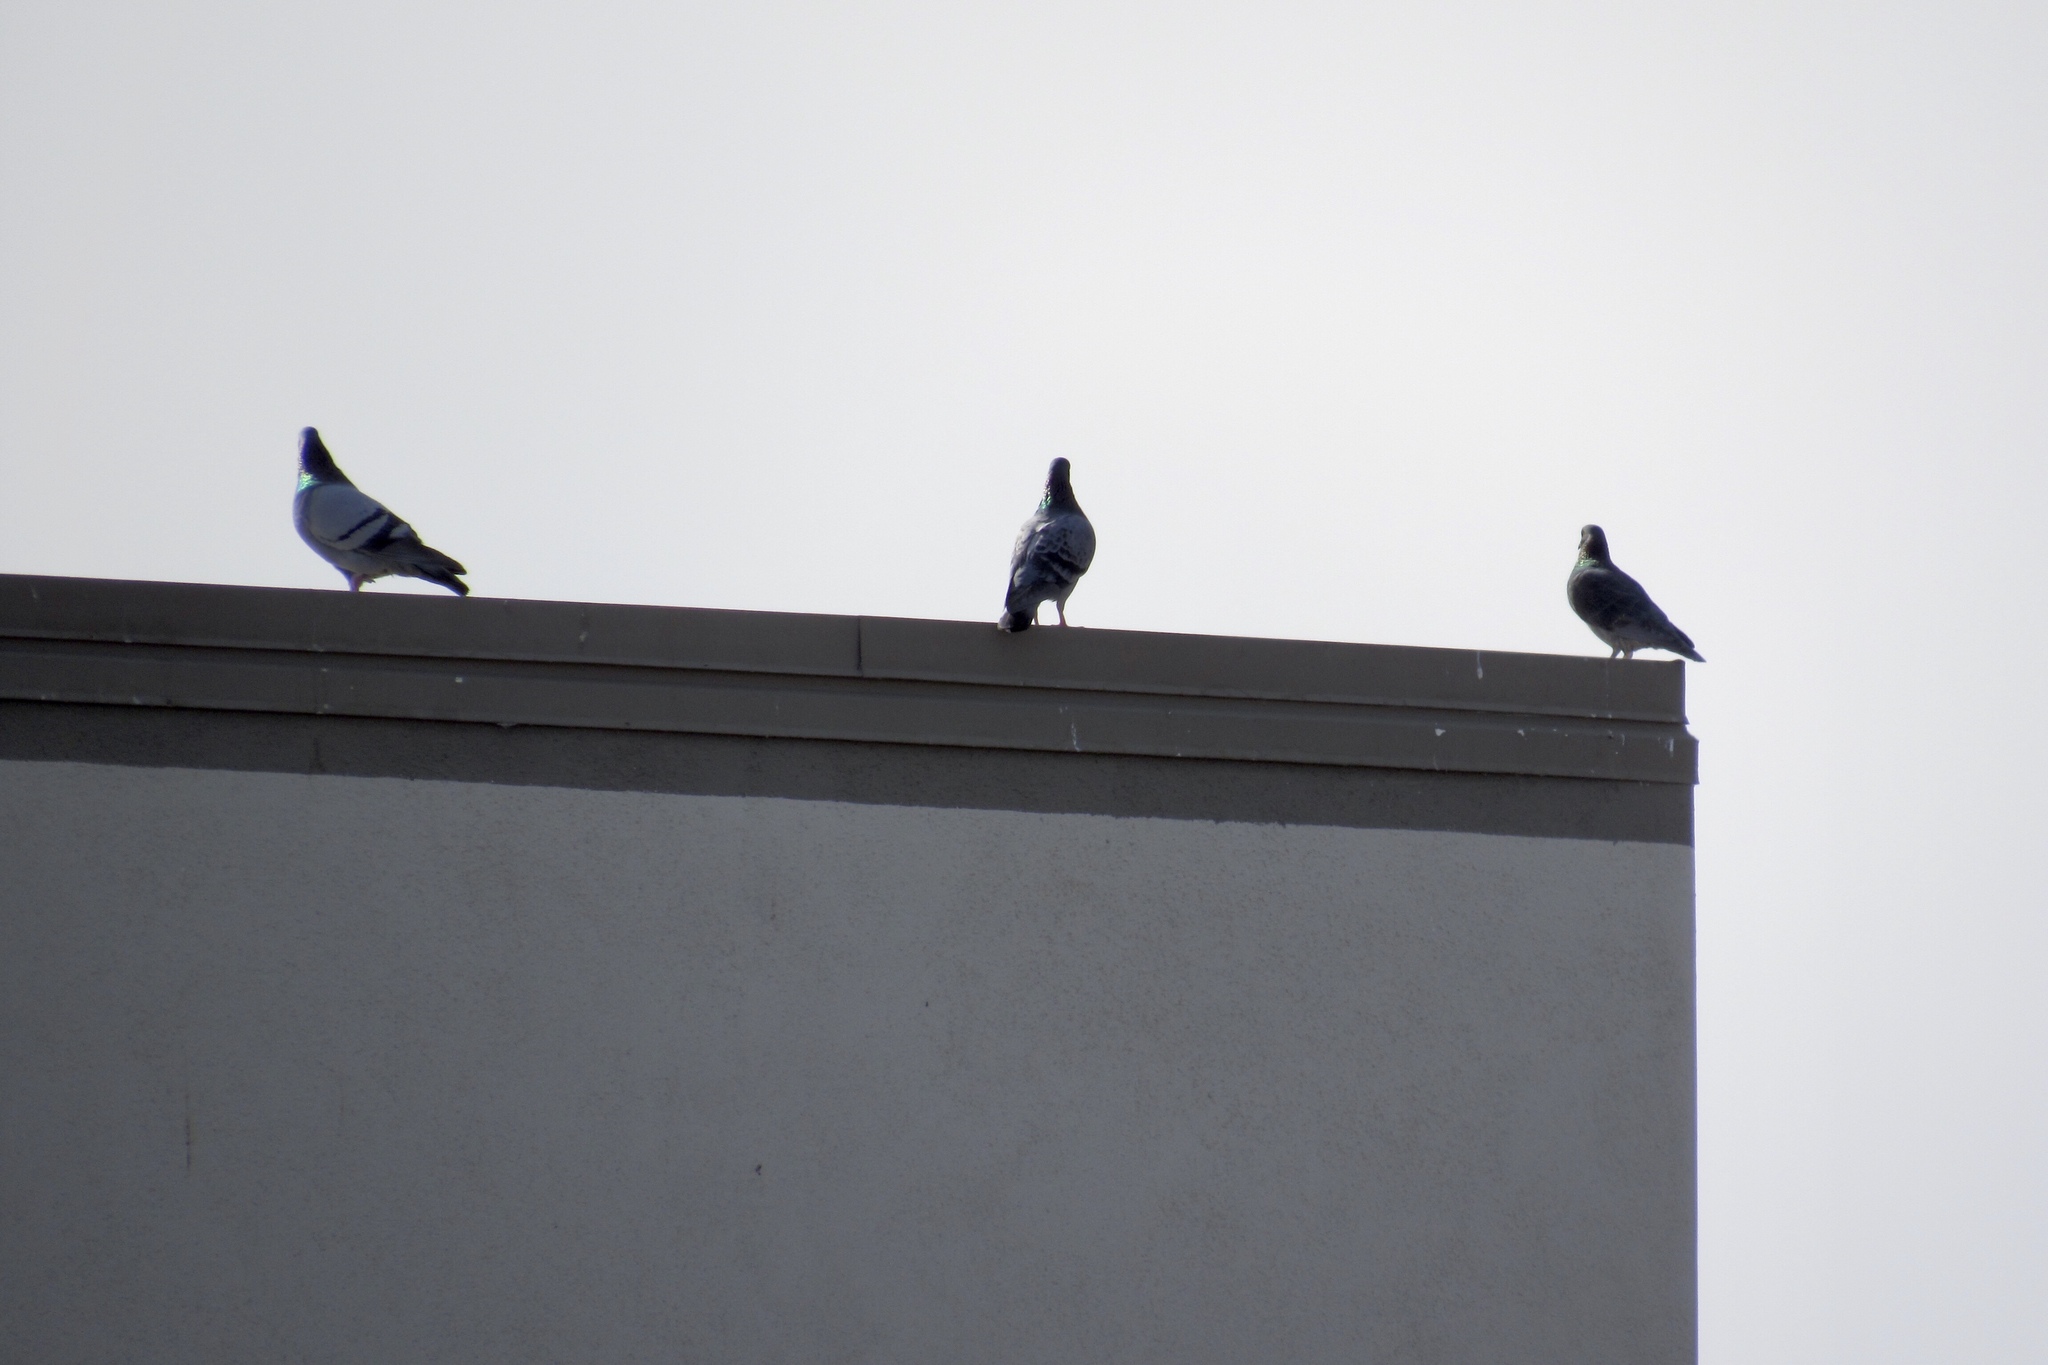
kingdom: Animalia
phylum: Chordata
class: Aves
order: Columbiformes
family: Columbidae
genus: Columba
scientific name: Columba livia
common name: Rock pigeon
